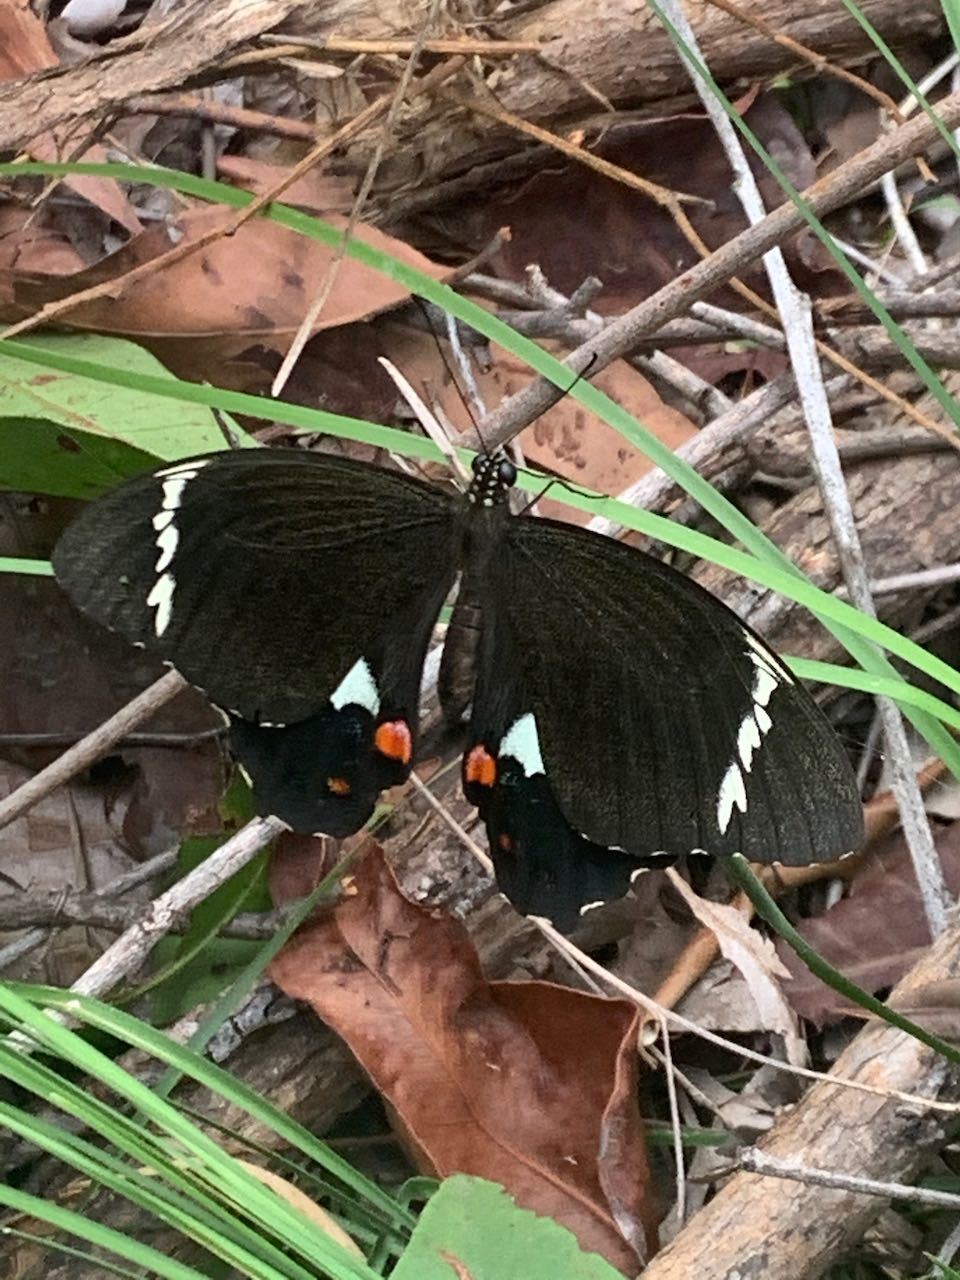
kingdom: Animalia
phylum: Arthropoda
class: Insecta
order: Lepidoptera
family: Papilionidae
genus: Papilio
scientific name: Papilio aegeus
